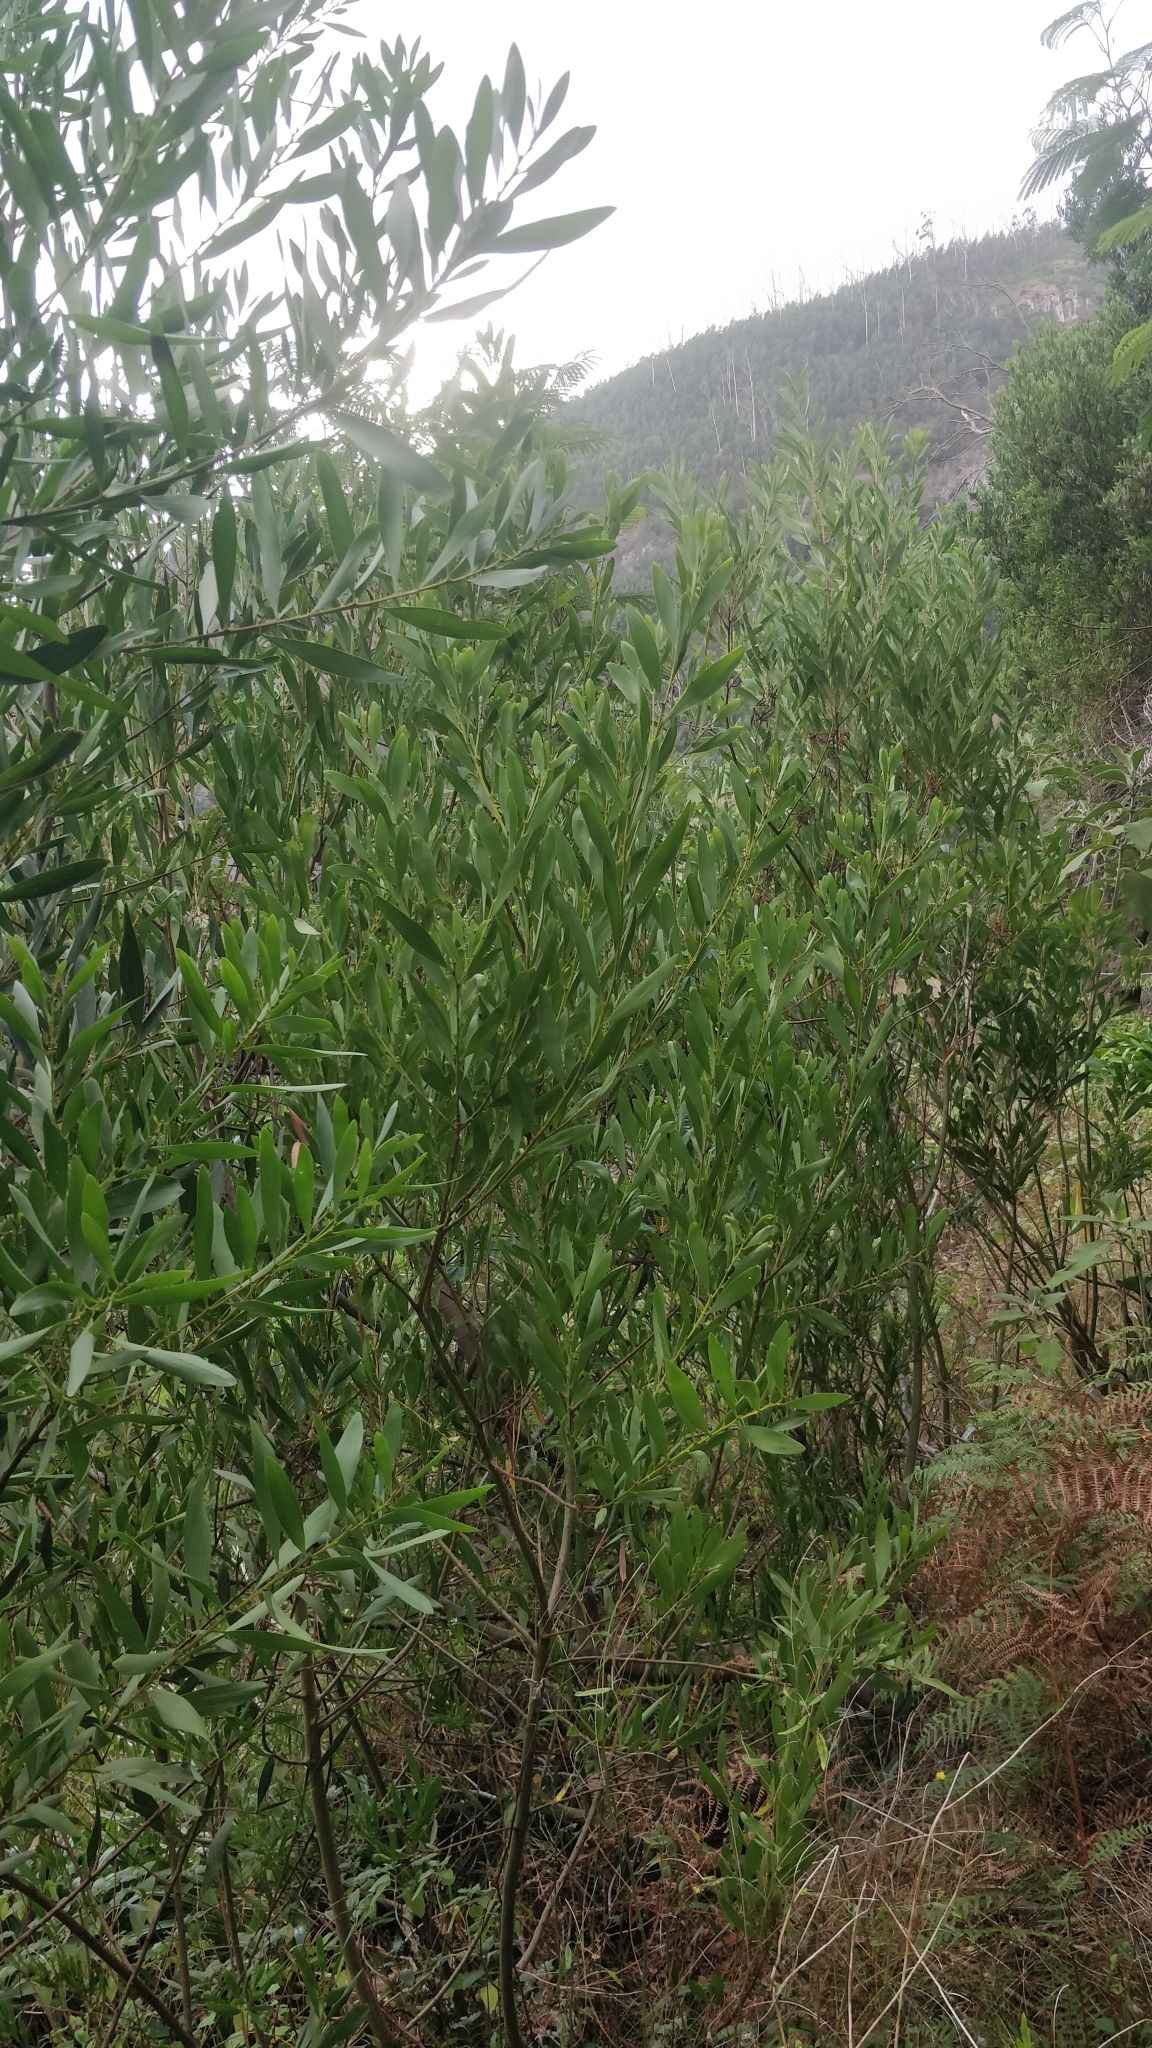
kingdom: Plantae
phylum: Tracheophyta
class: Magnoliopsida
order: Fabales
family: Fabaceae
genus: Acacia
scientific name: Acacia melanoxylon
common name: Blackwood
